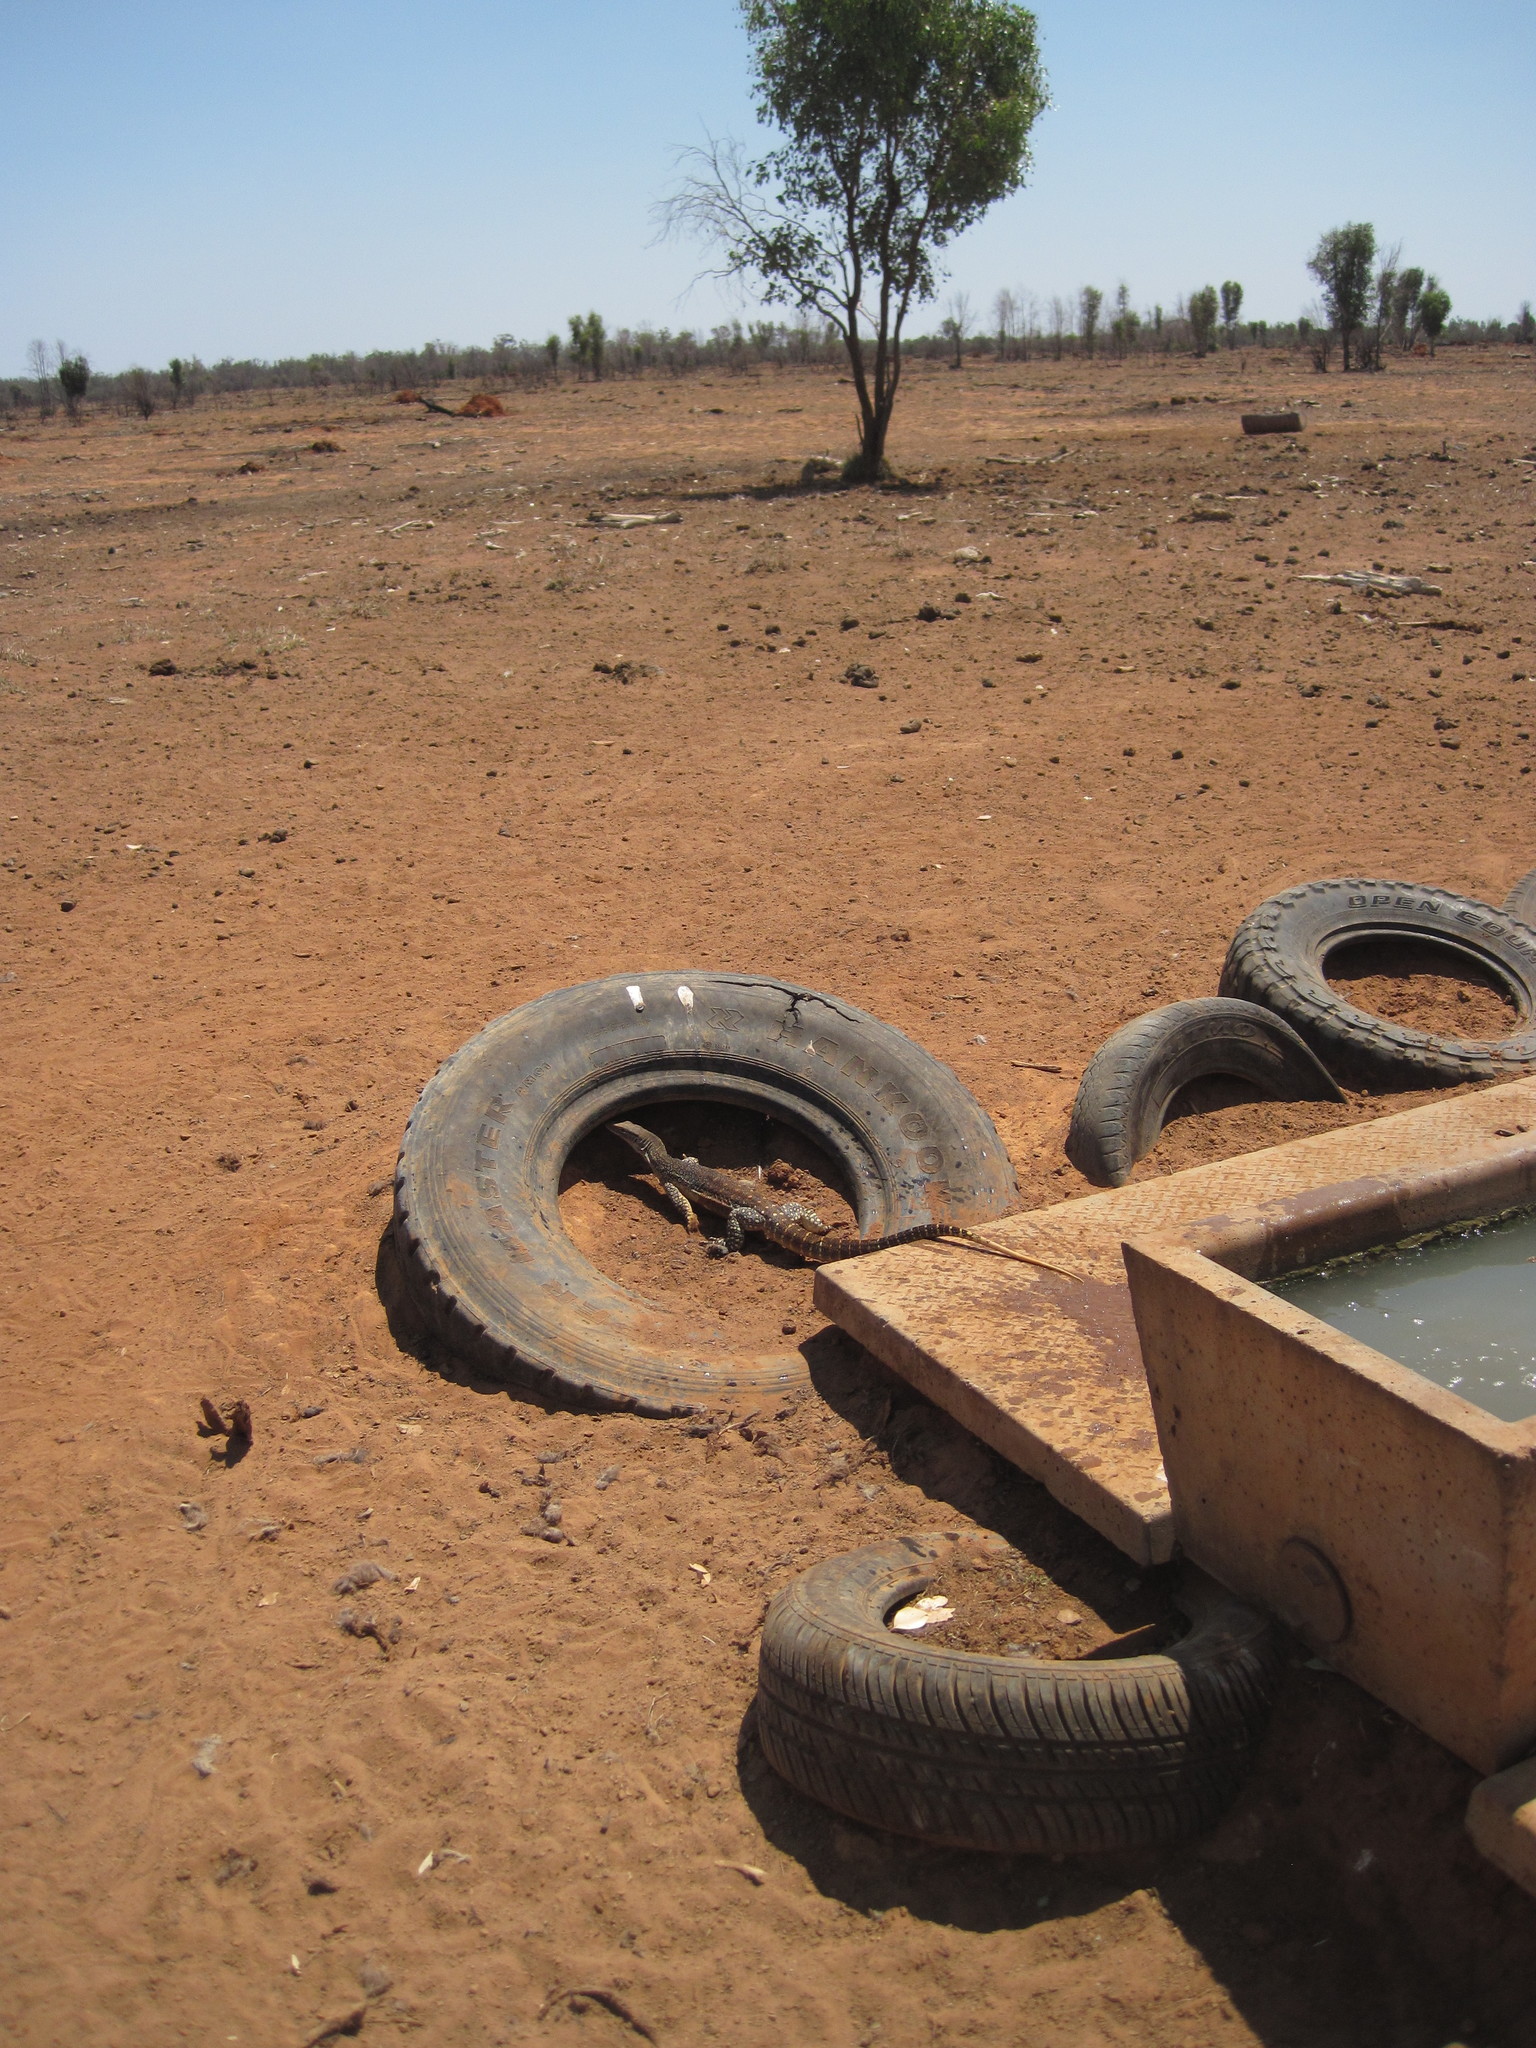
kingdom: Animalia
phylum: Chordata
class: Squamata
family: Varanidae
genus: Varanus
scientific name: Varanus gouldii
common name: Gould's goanna
